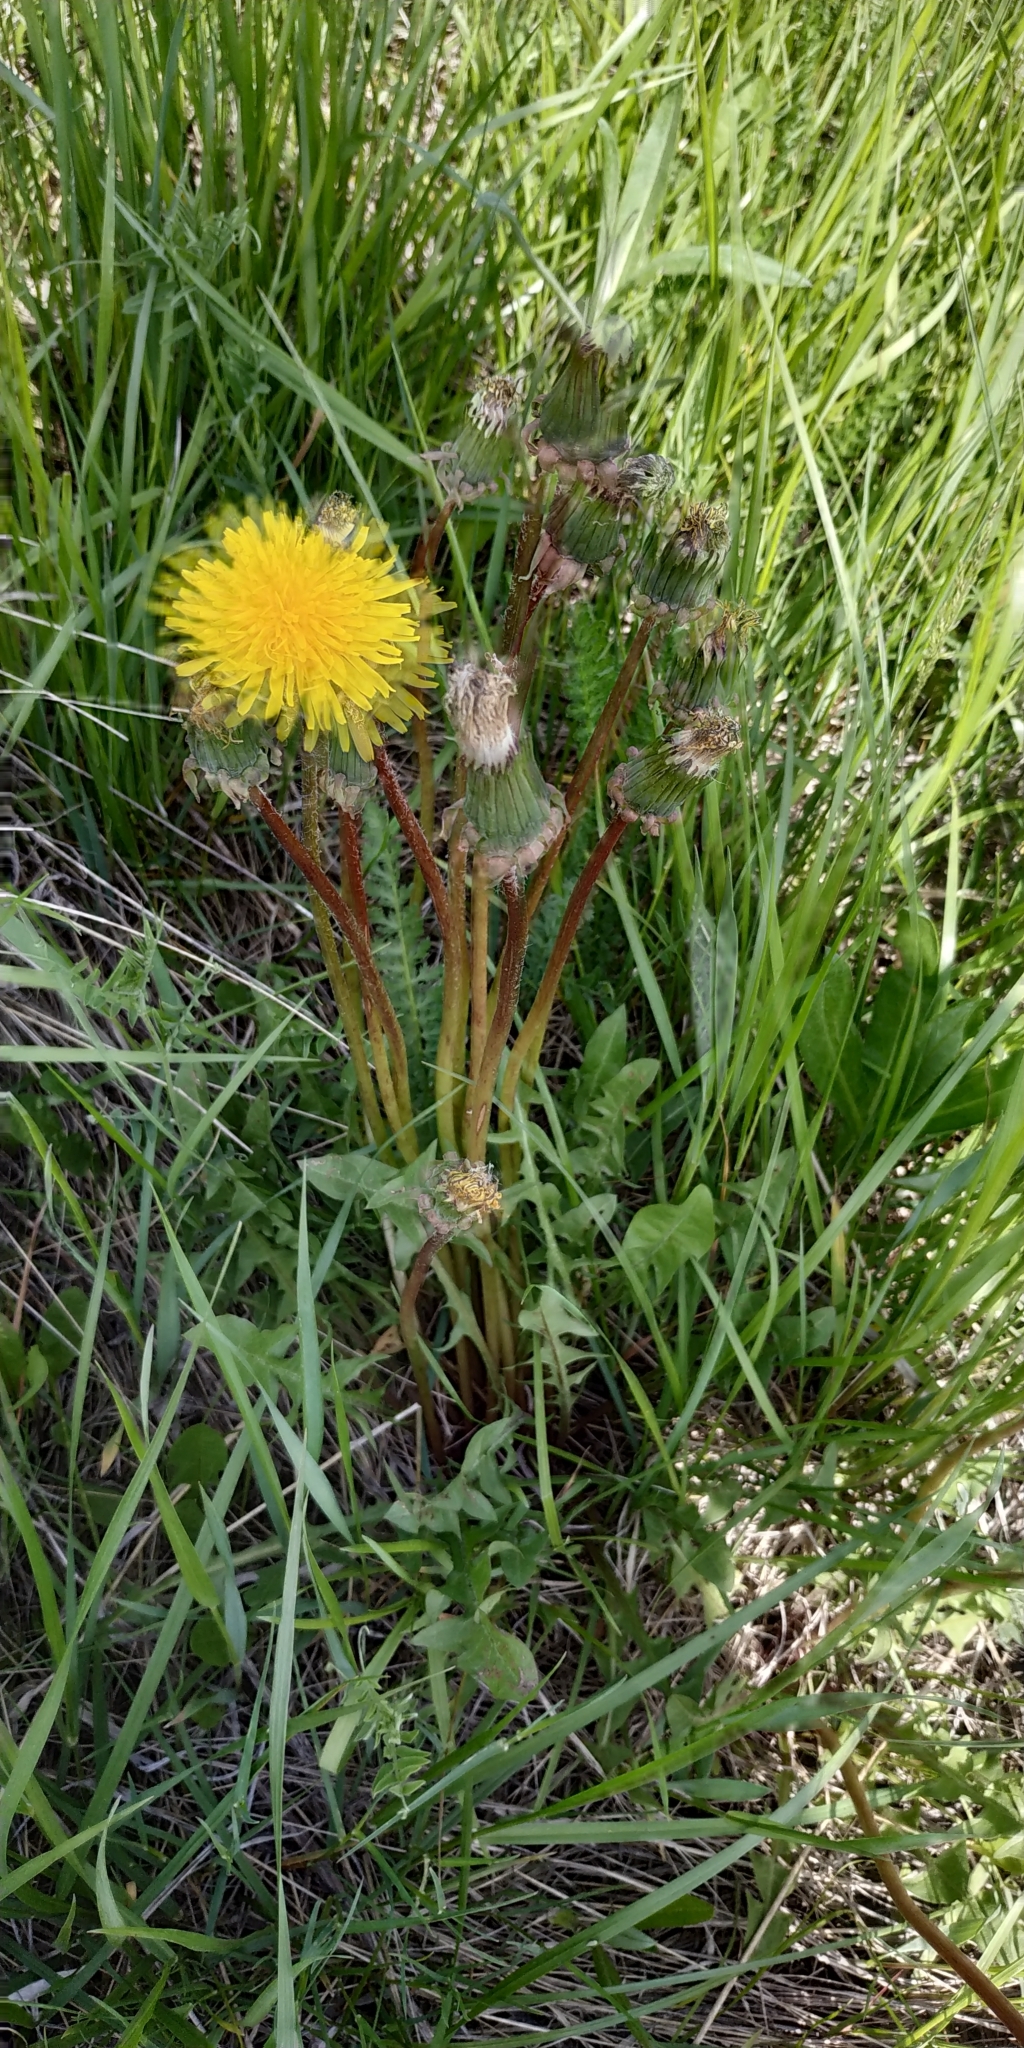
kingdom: Plantae
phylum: Tracheophyta
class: Magnoliopsida
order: Asterales
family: Asteraceae
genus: Taraxacum
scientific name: Taraxacum officinale
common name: Common dandelion
